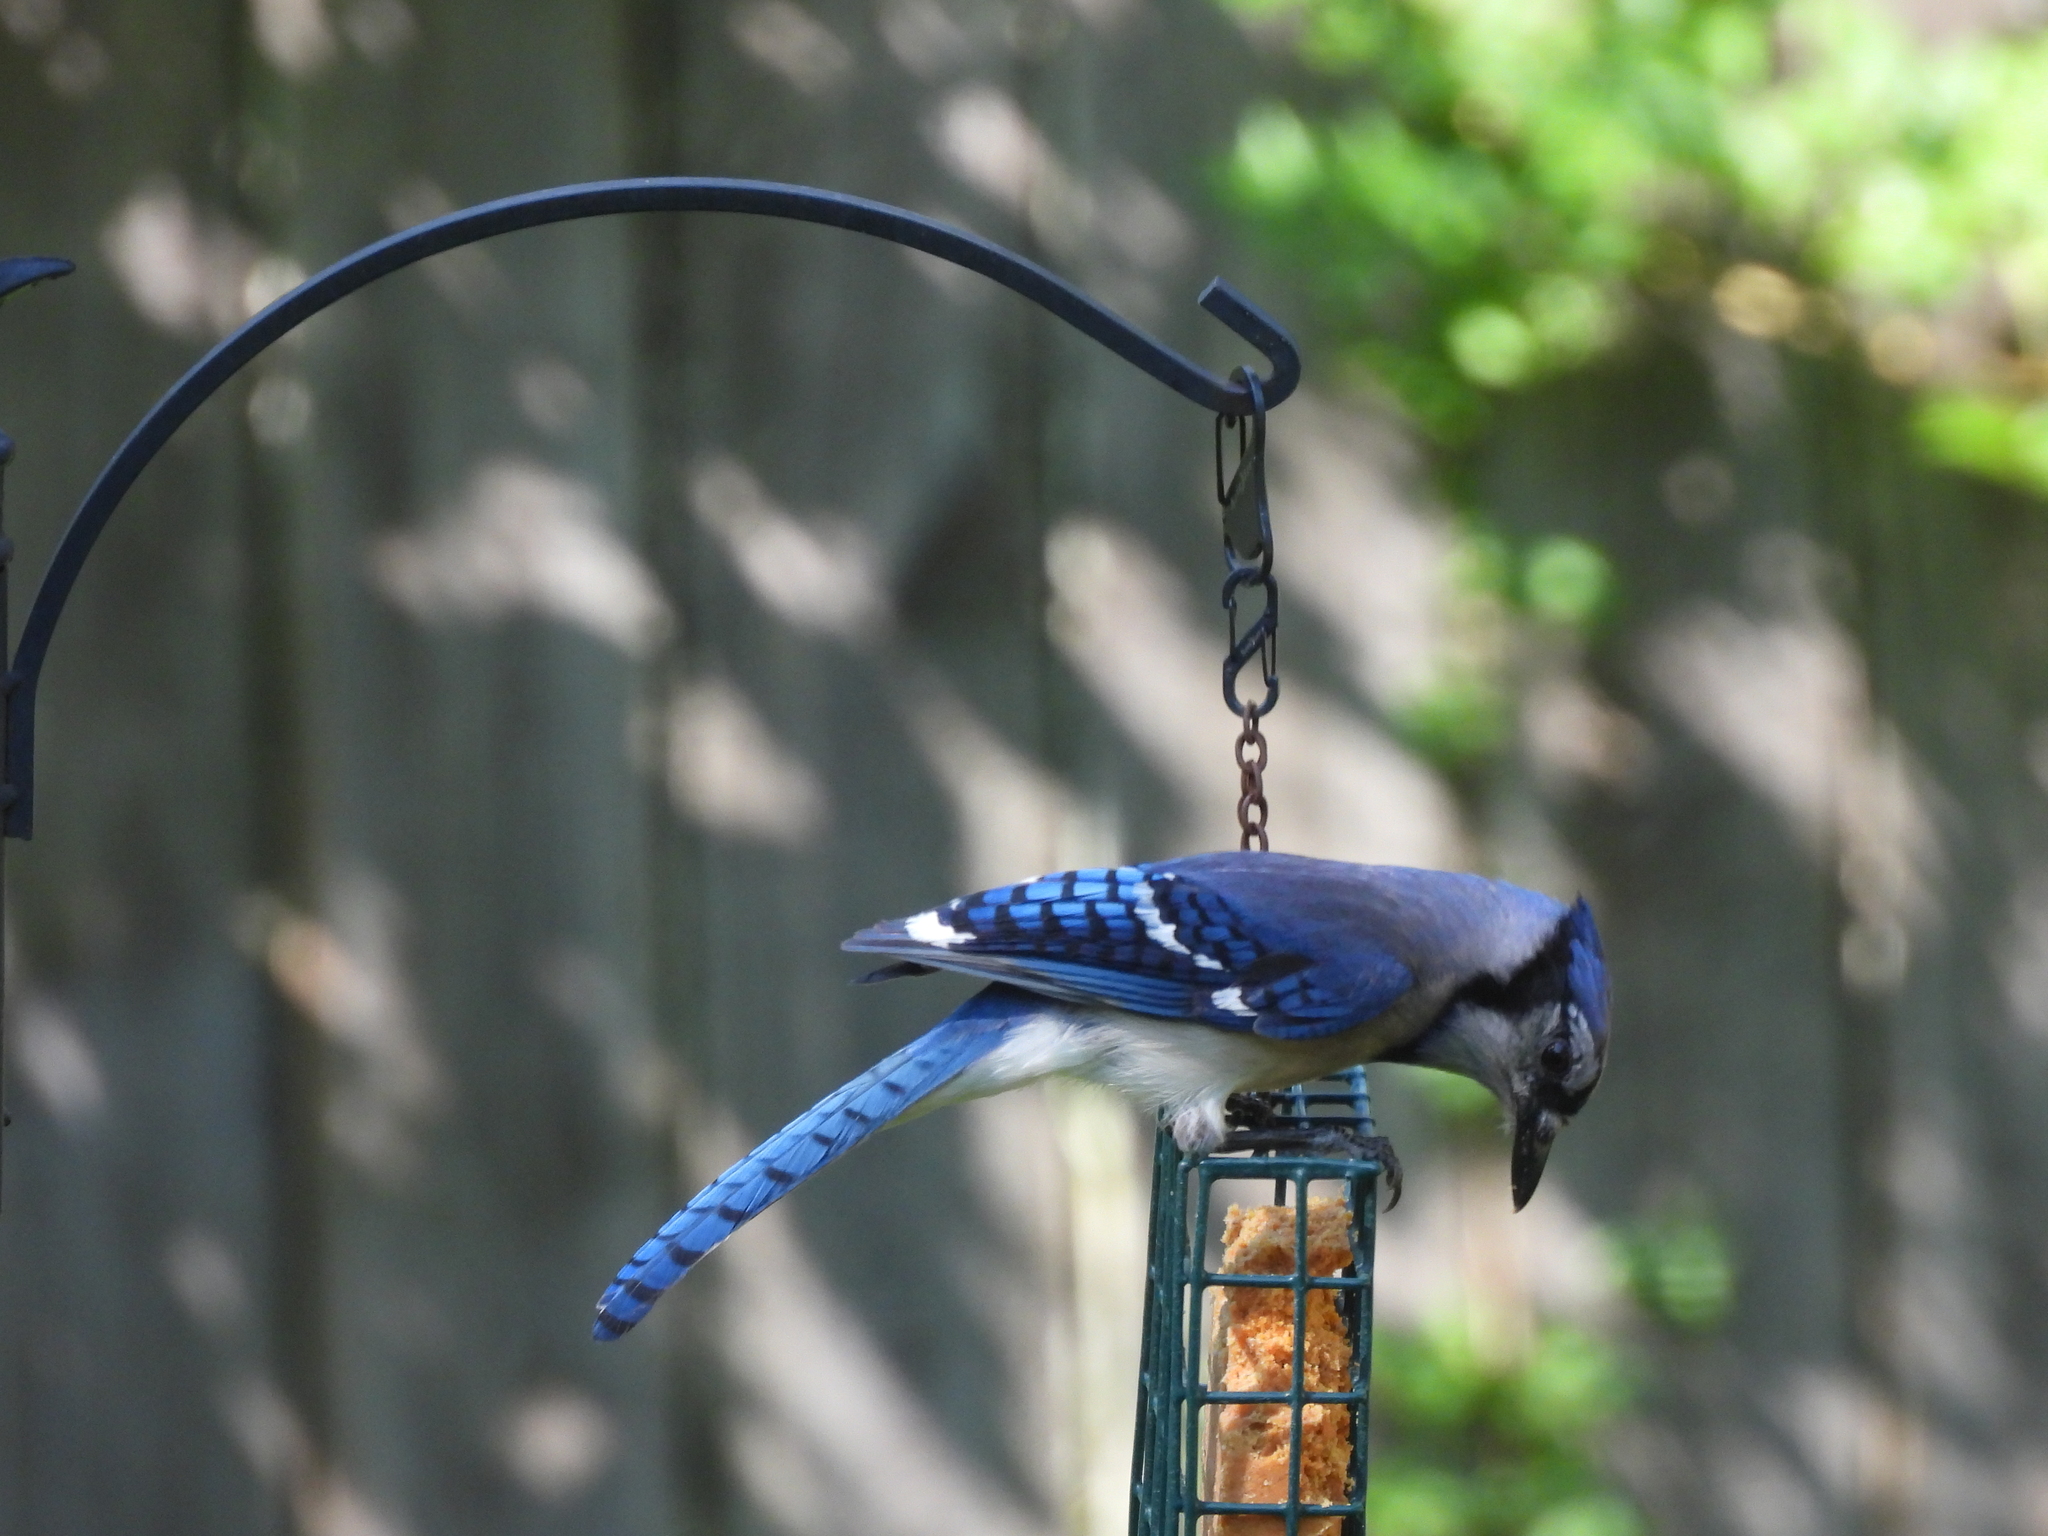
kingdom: Animalia
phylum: Chordata
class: Aves
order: Passeriformes
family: Corvidae
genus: Cyanocitta
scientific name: Cyanocitta cristata
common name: Blue jay
